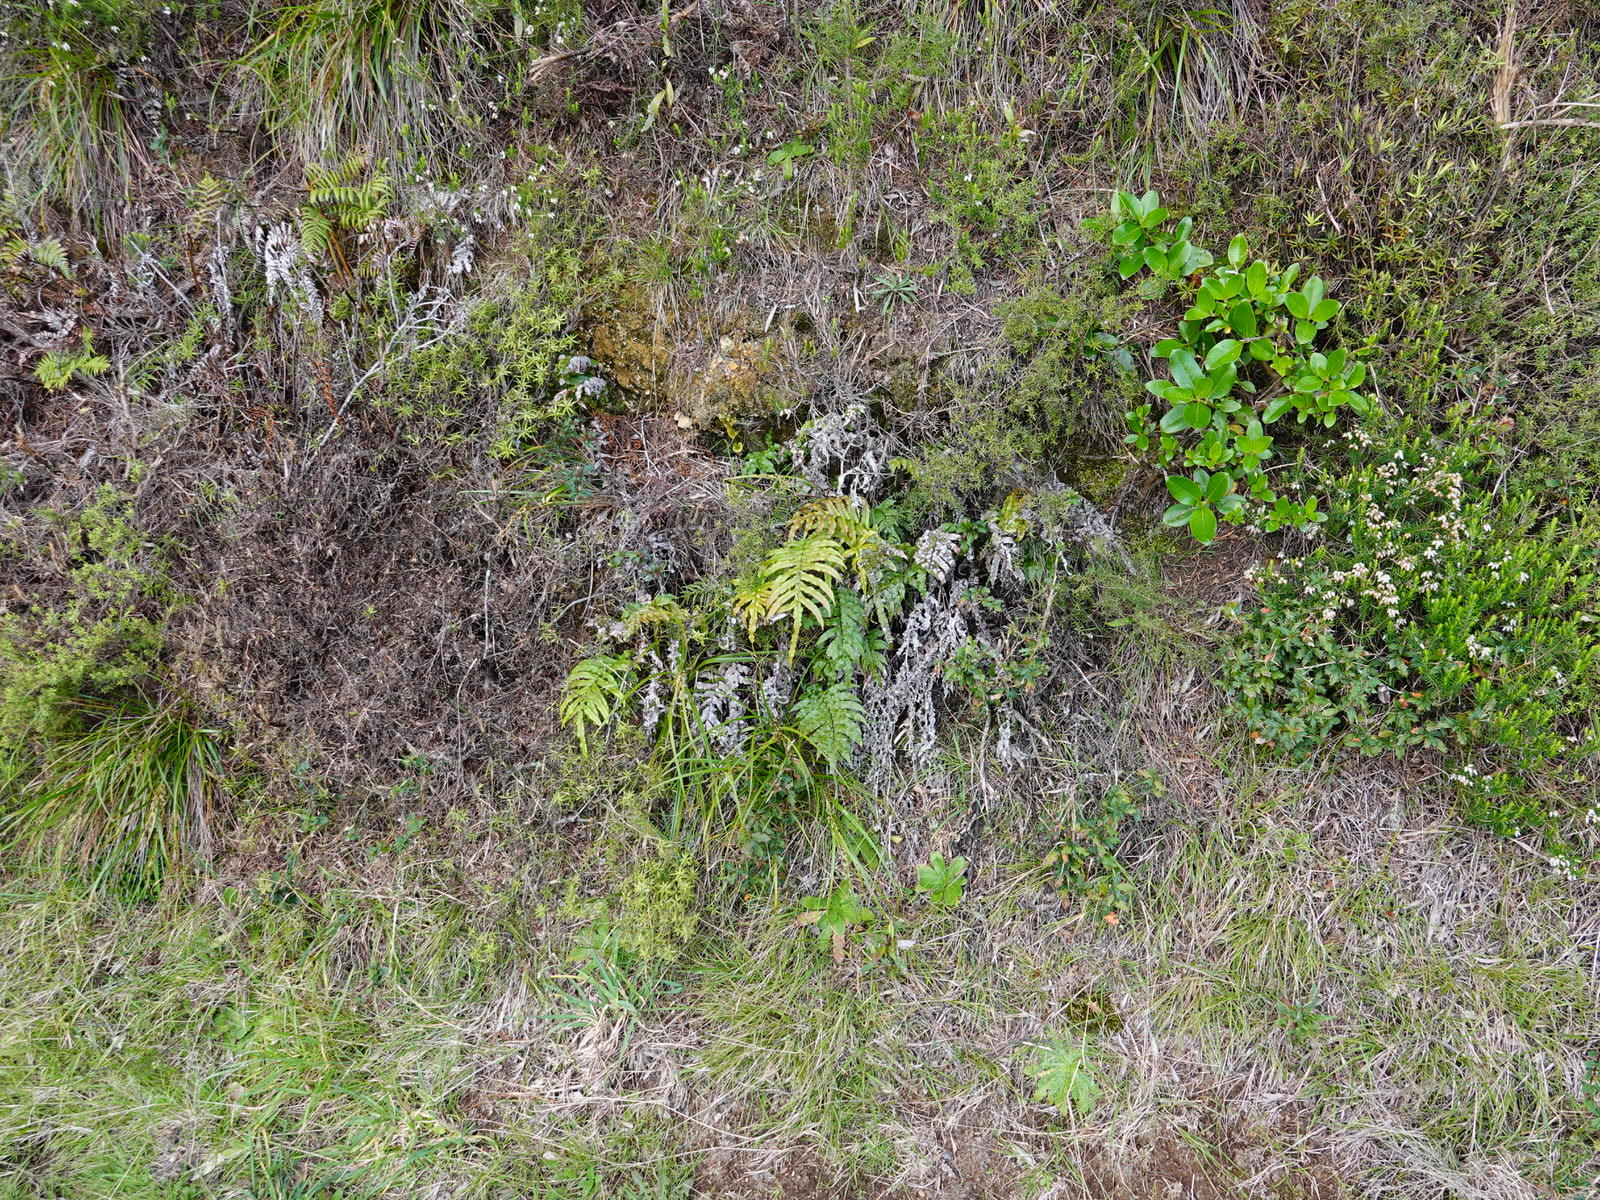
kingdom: Plantae
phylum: Tracheophyta
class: Polypodiopsida
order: Polypodiales
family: Blechnaceae
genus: Parablechnum
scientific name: Parablechnum novae-zelandiae
